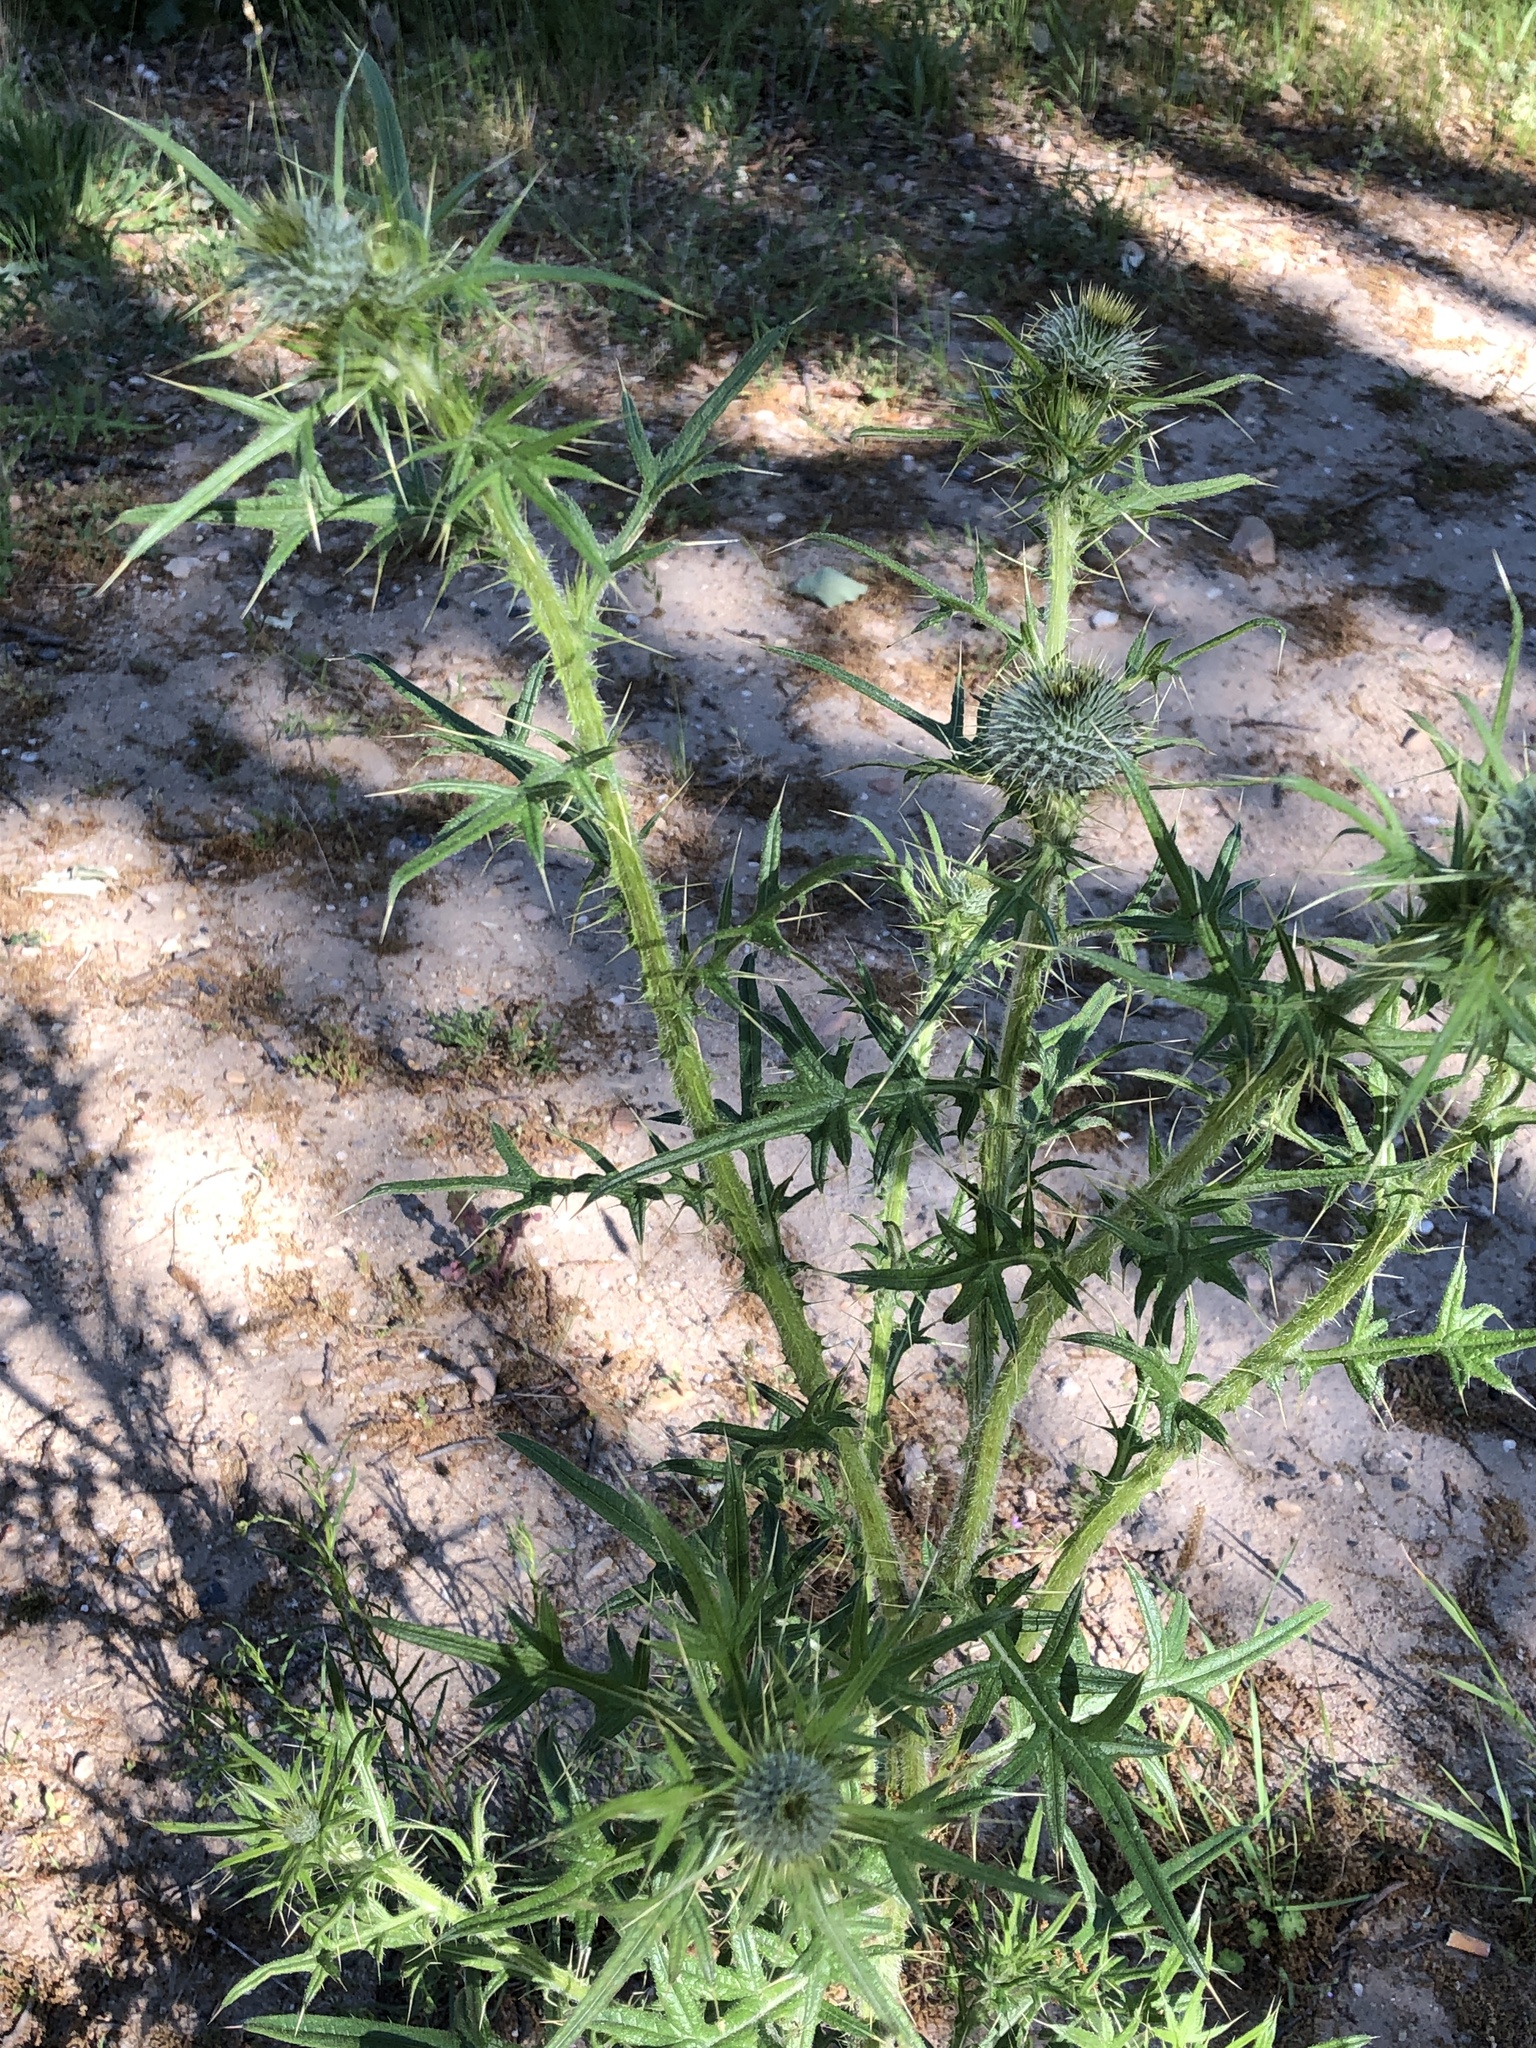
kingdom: Plantae
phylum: Tracheophyta
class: Magnoliopsida
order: Asterales
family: Asteraceae
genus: Cirsium
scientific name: Cirsium vulgare
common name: Bull thistle
